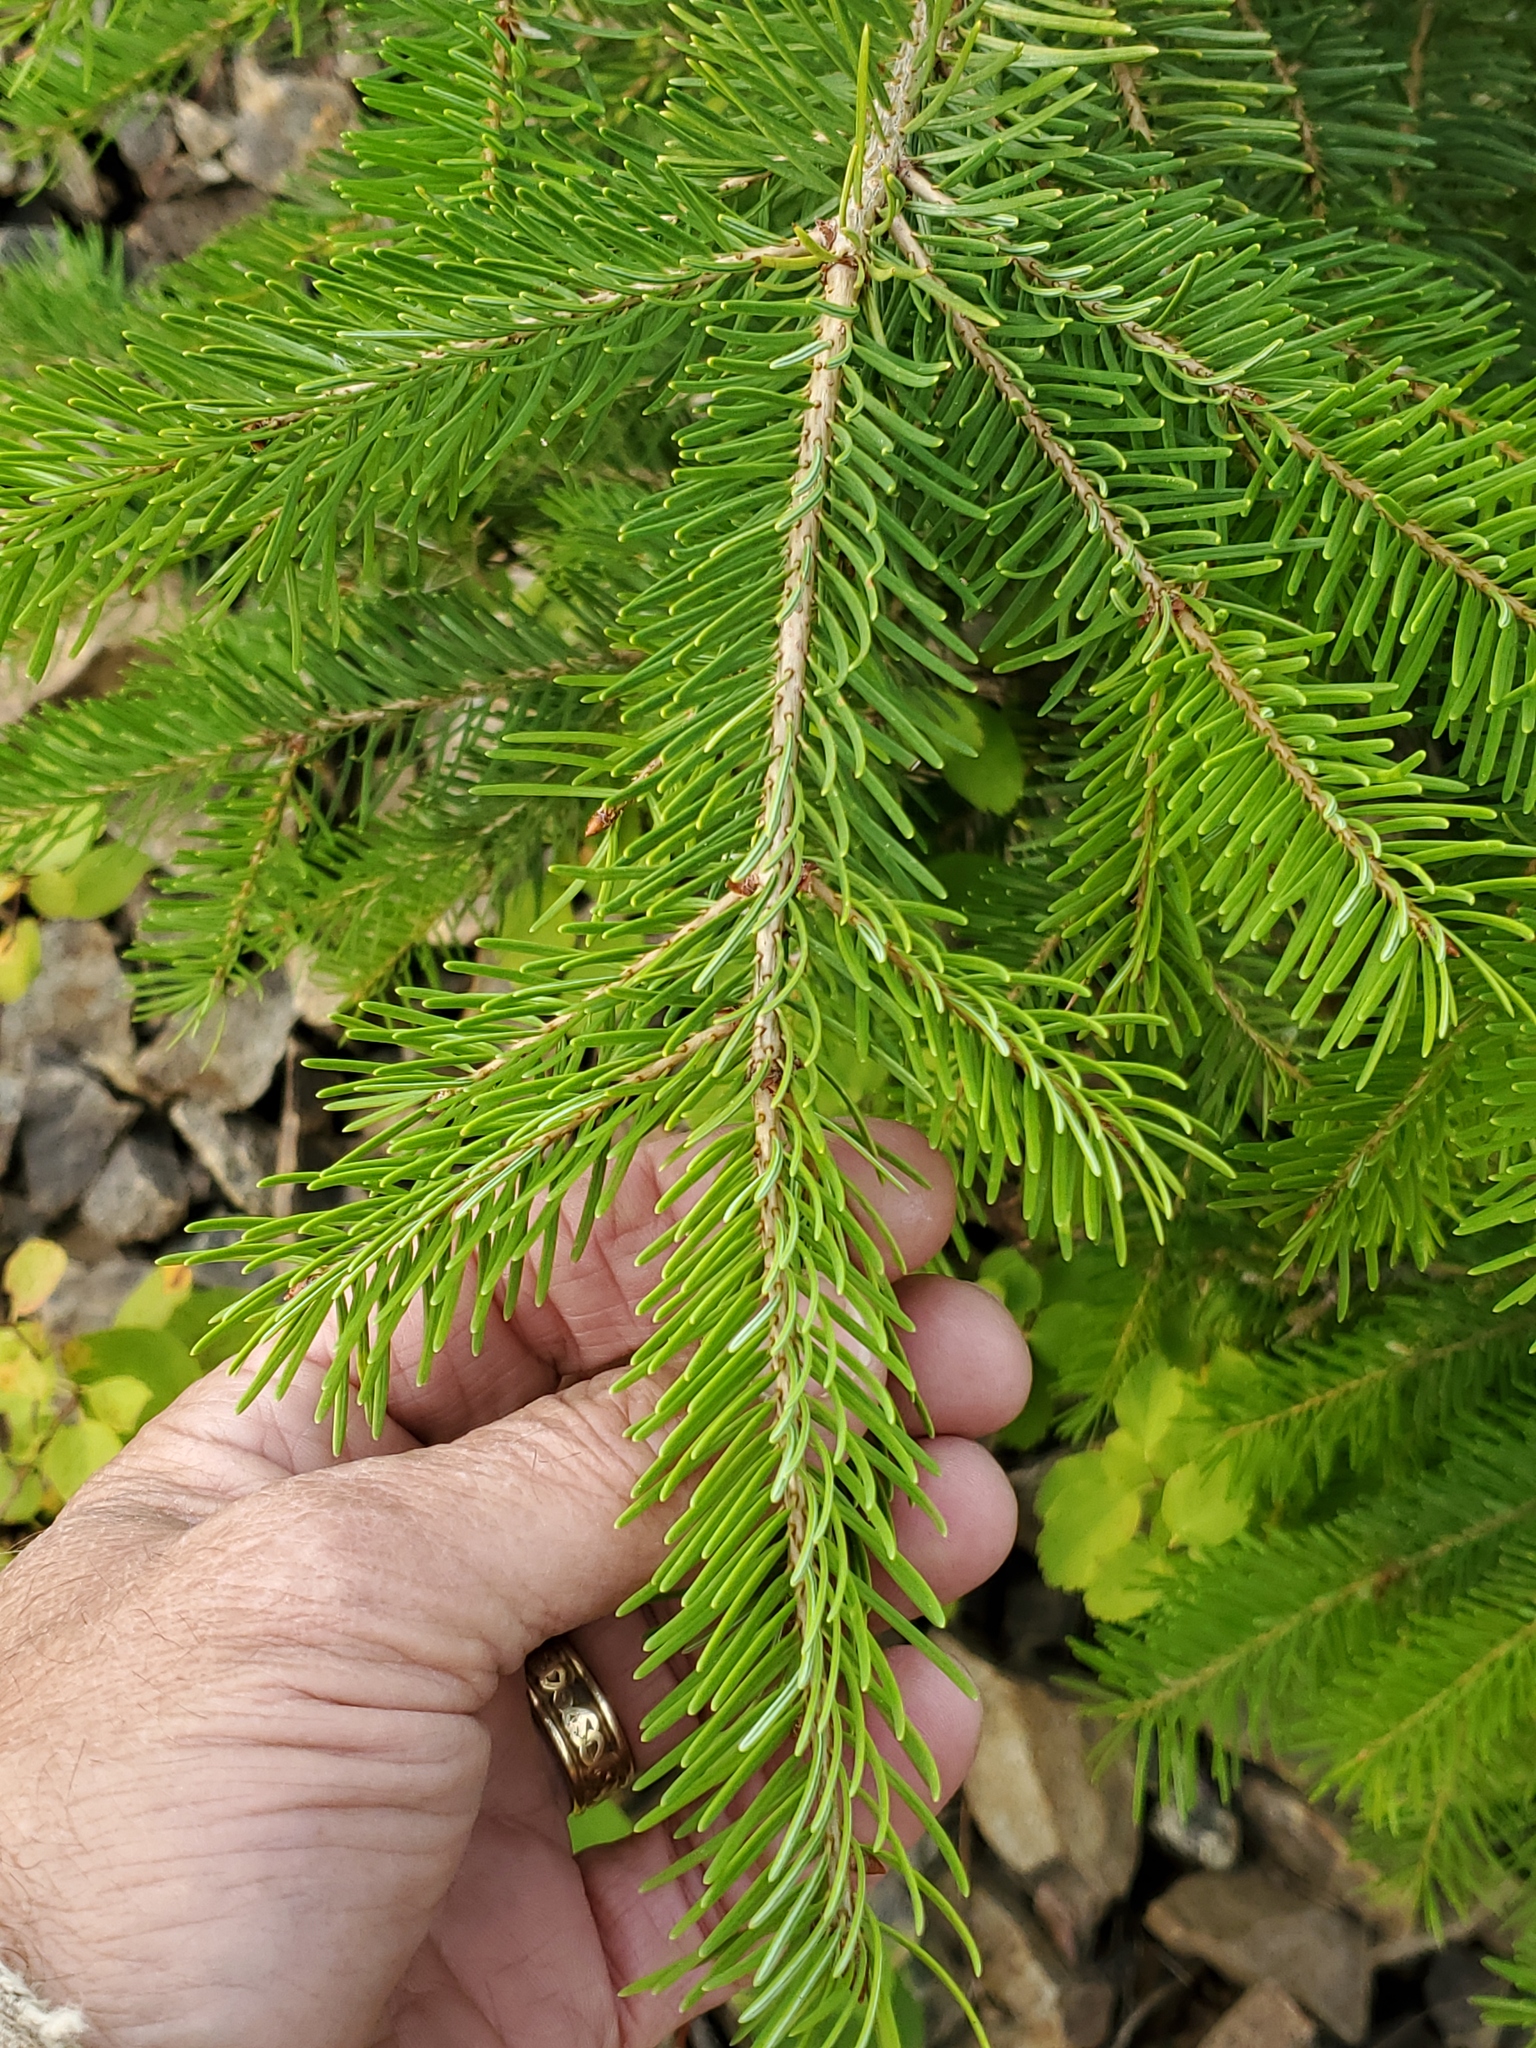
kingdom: Plantae
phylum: Tracheophyta
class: Pinopsida
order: Pinales
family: Pinaceae
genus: Pseudotsuga
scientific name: Pseudotsuga menziesii
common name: Douglas fir
